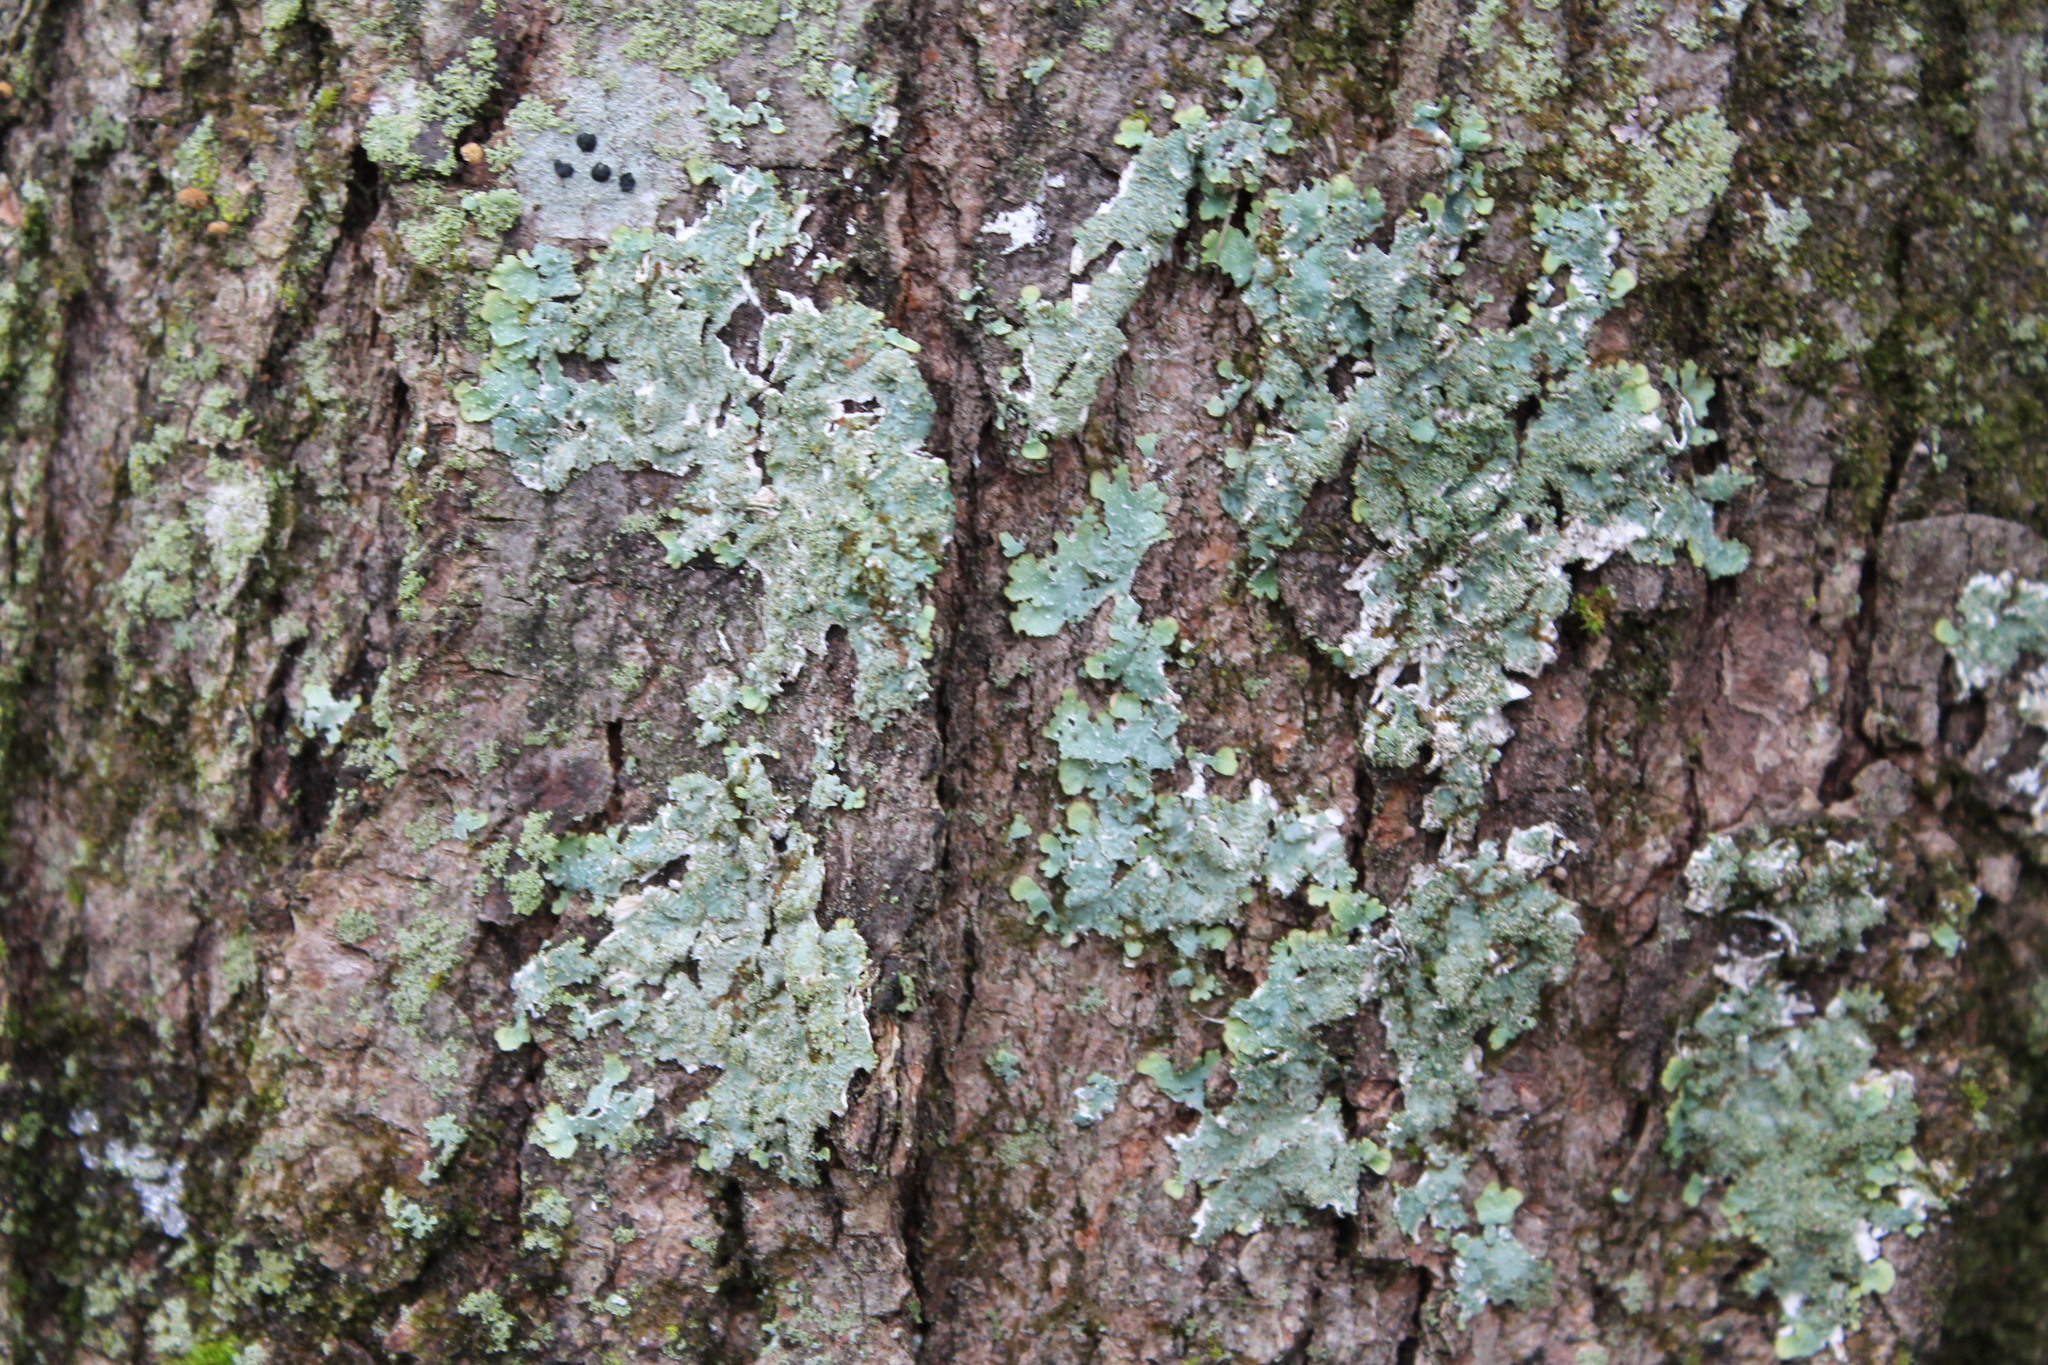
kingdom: Fungi
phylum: Ascomycota
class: Lecanoromycetes
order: Lecanorales
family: Parmeliaceae
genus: Flavoparmelia
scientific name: Flavoparmelia caperata
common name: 40-mile per hour lichen
